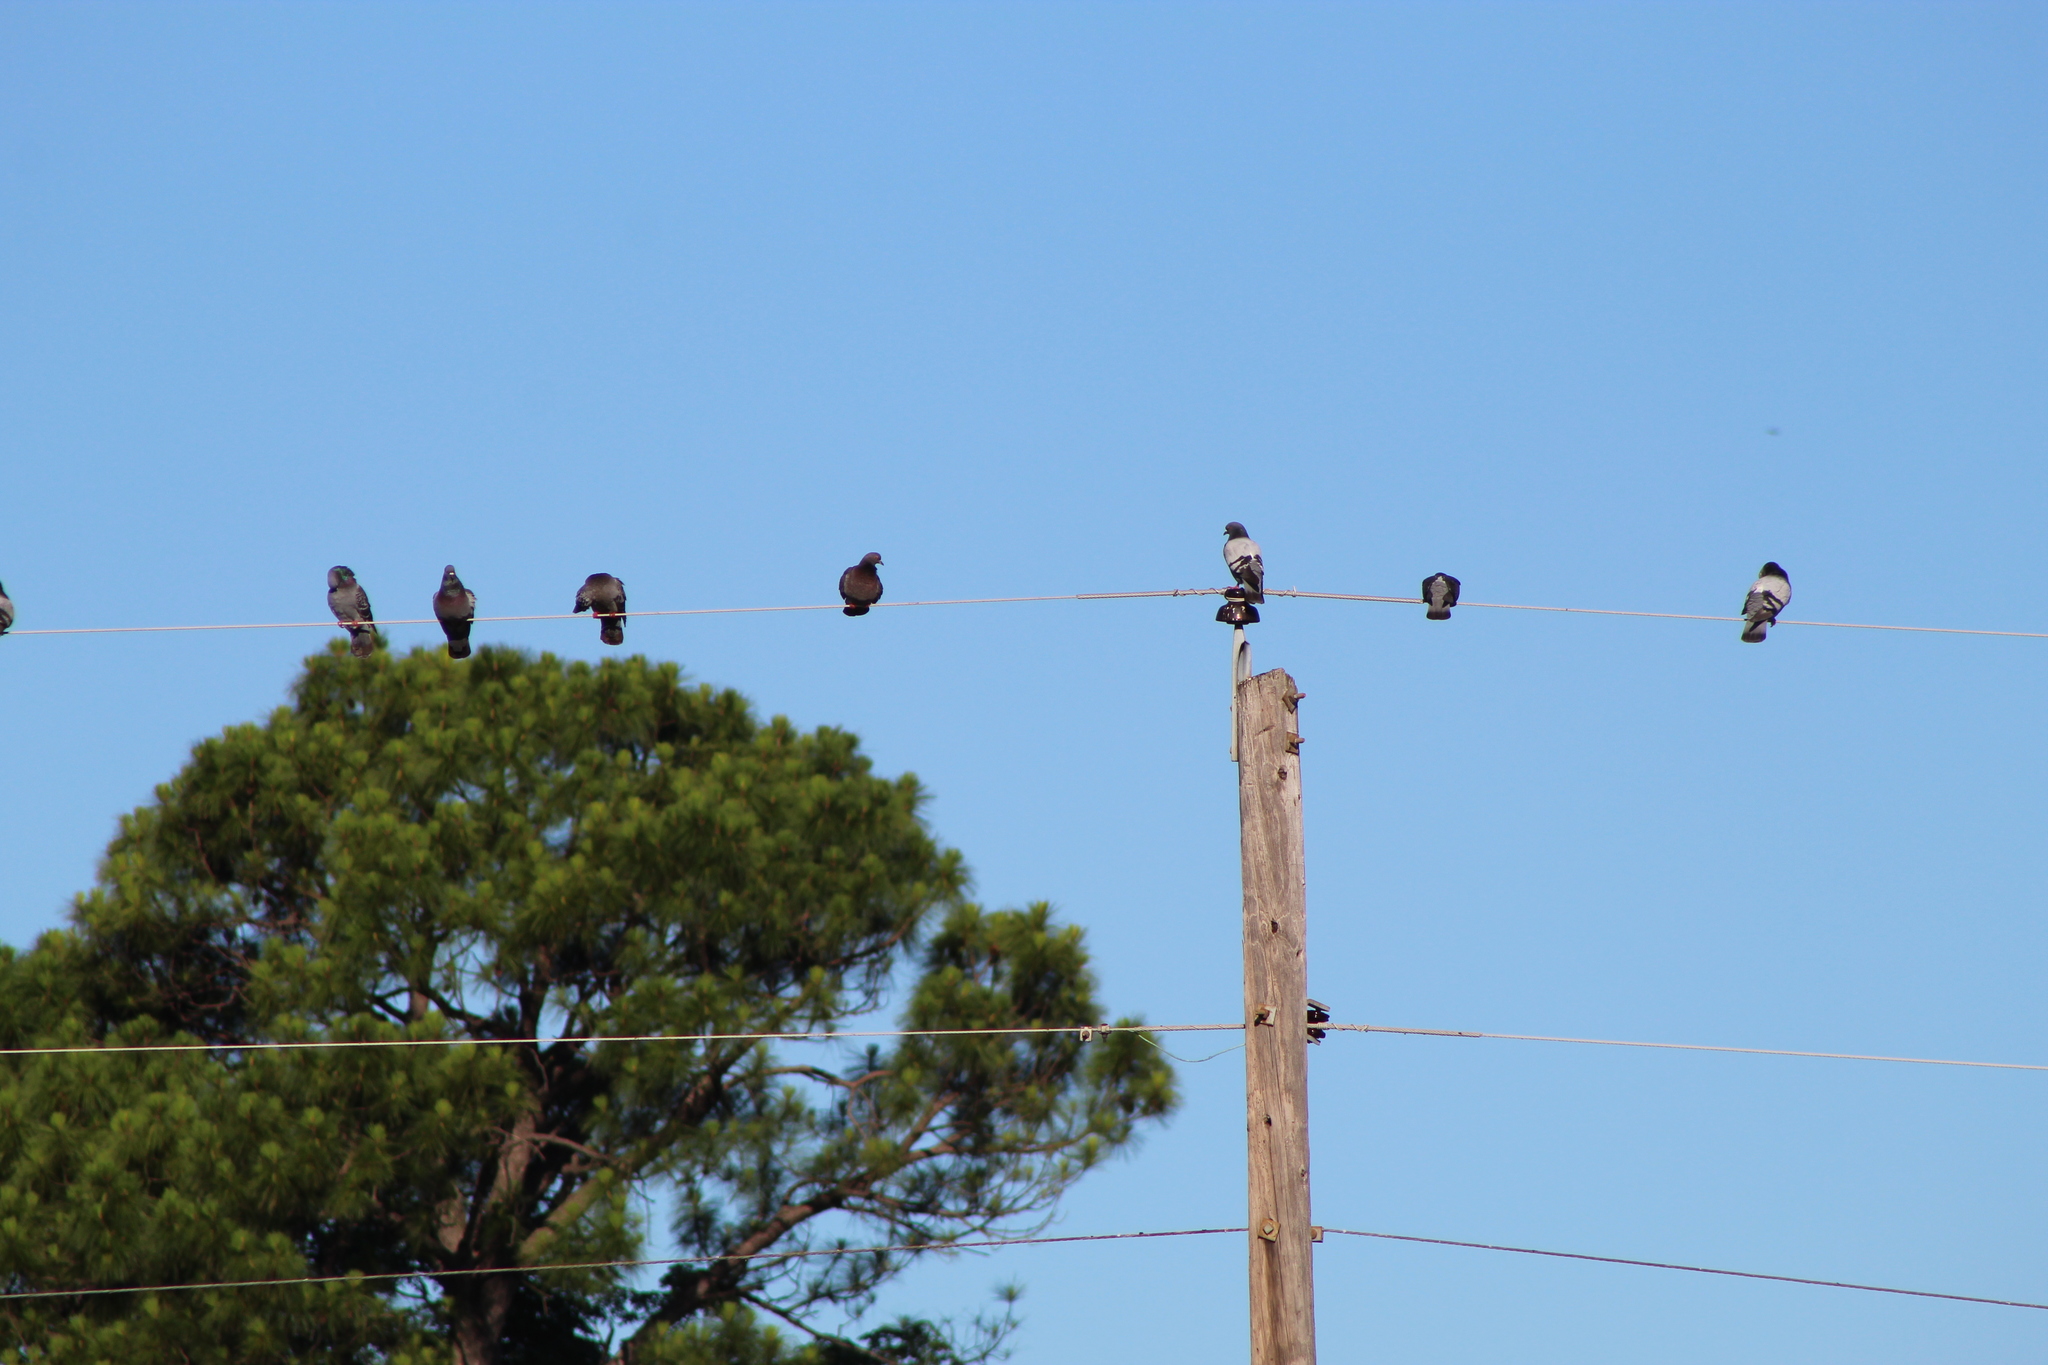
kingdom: Animalia
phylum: Chordata
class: Aves
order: Columbiformes
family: Columbidae
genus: Columba
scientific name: Columba livia
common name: Rock pigeon
